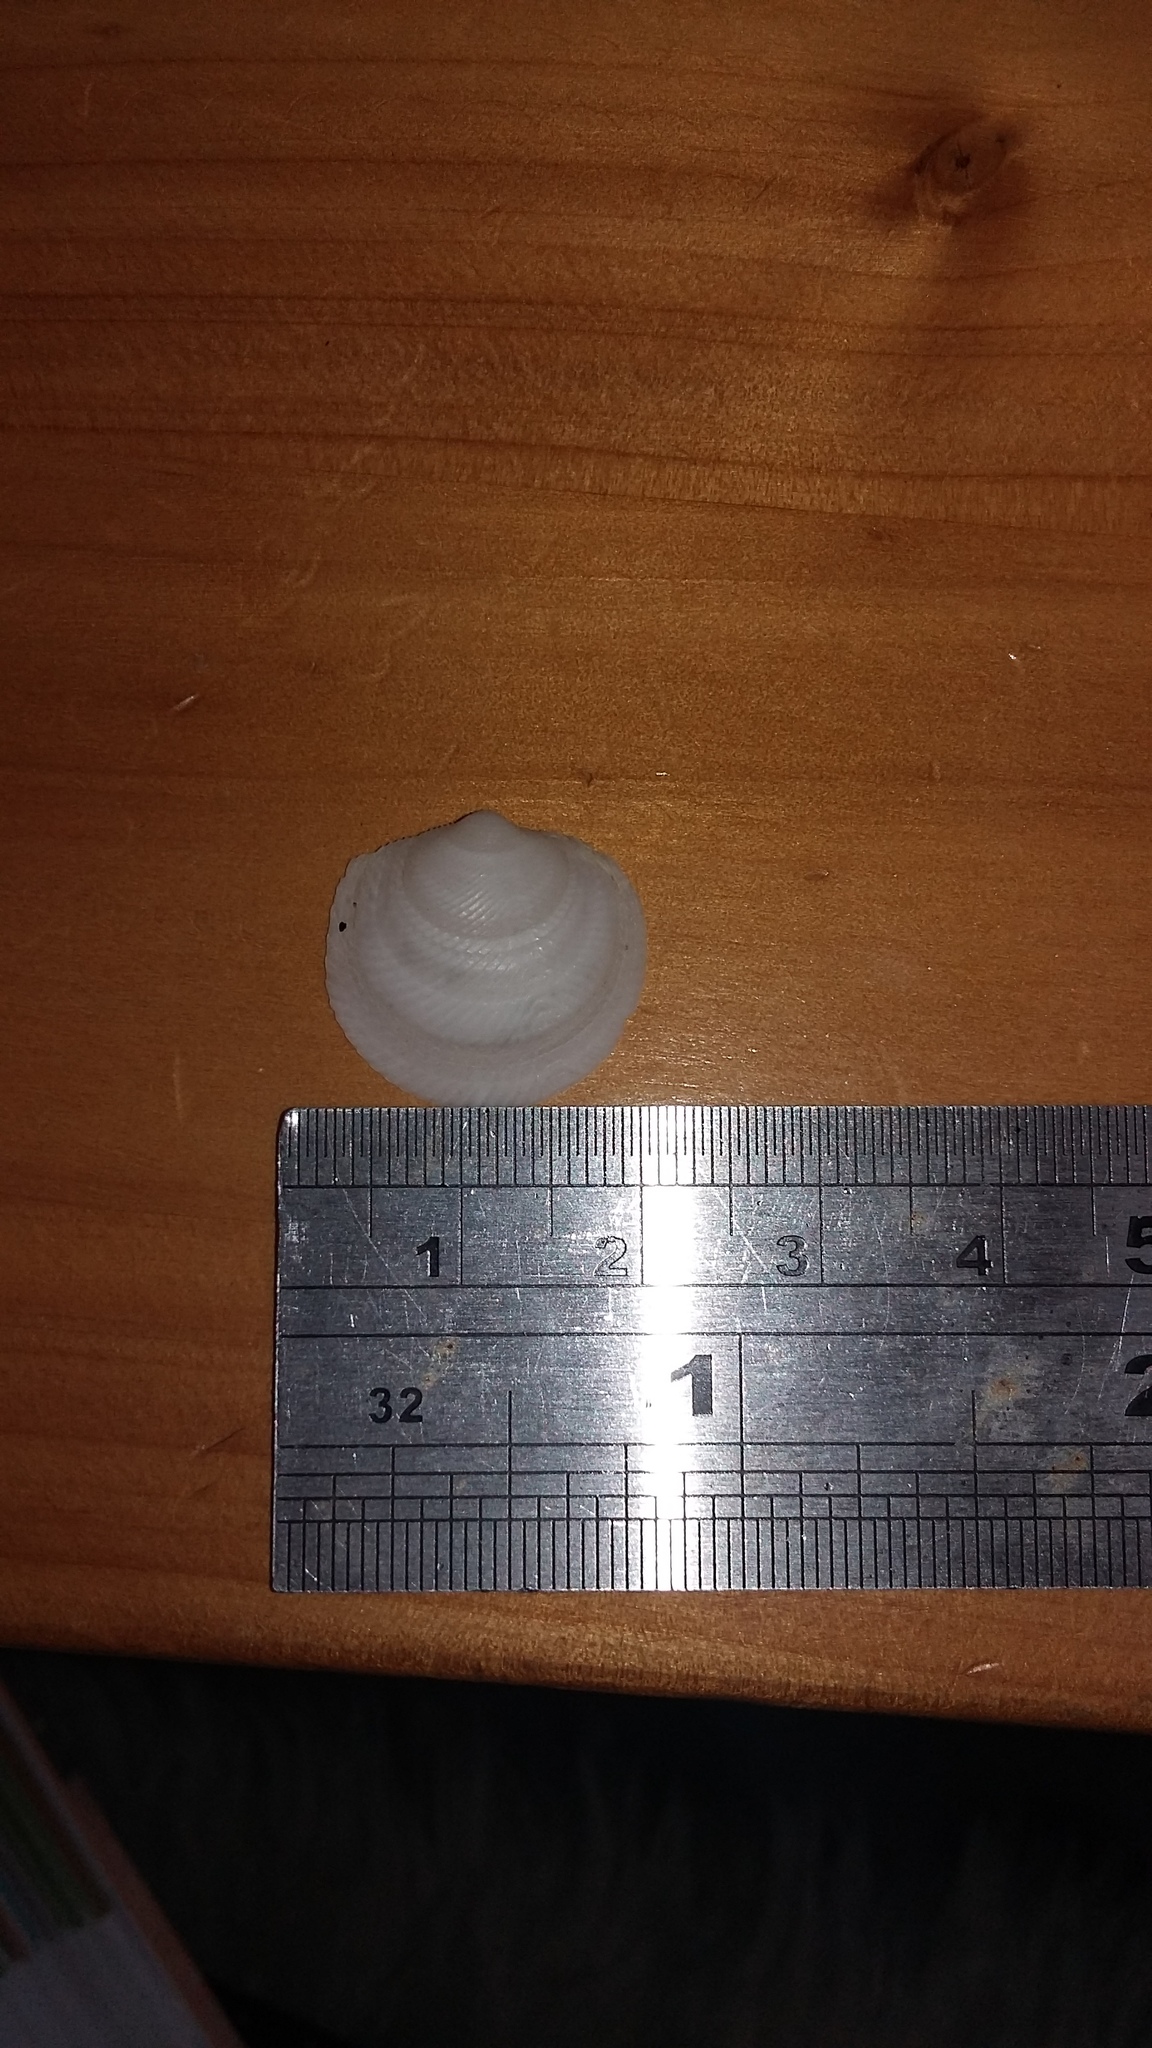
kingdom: Animalia
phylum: Mollusca
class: Bivalvia
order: Lucinida
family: Lucinidae
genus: Divalucina
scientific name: Divalucina cumingi
